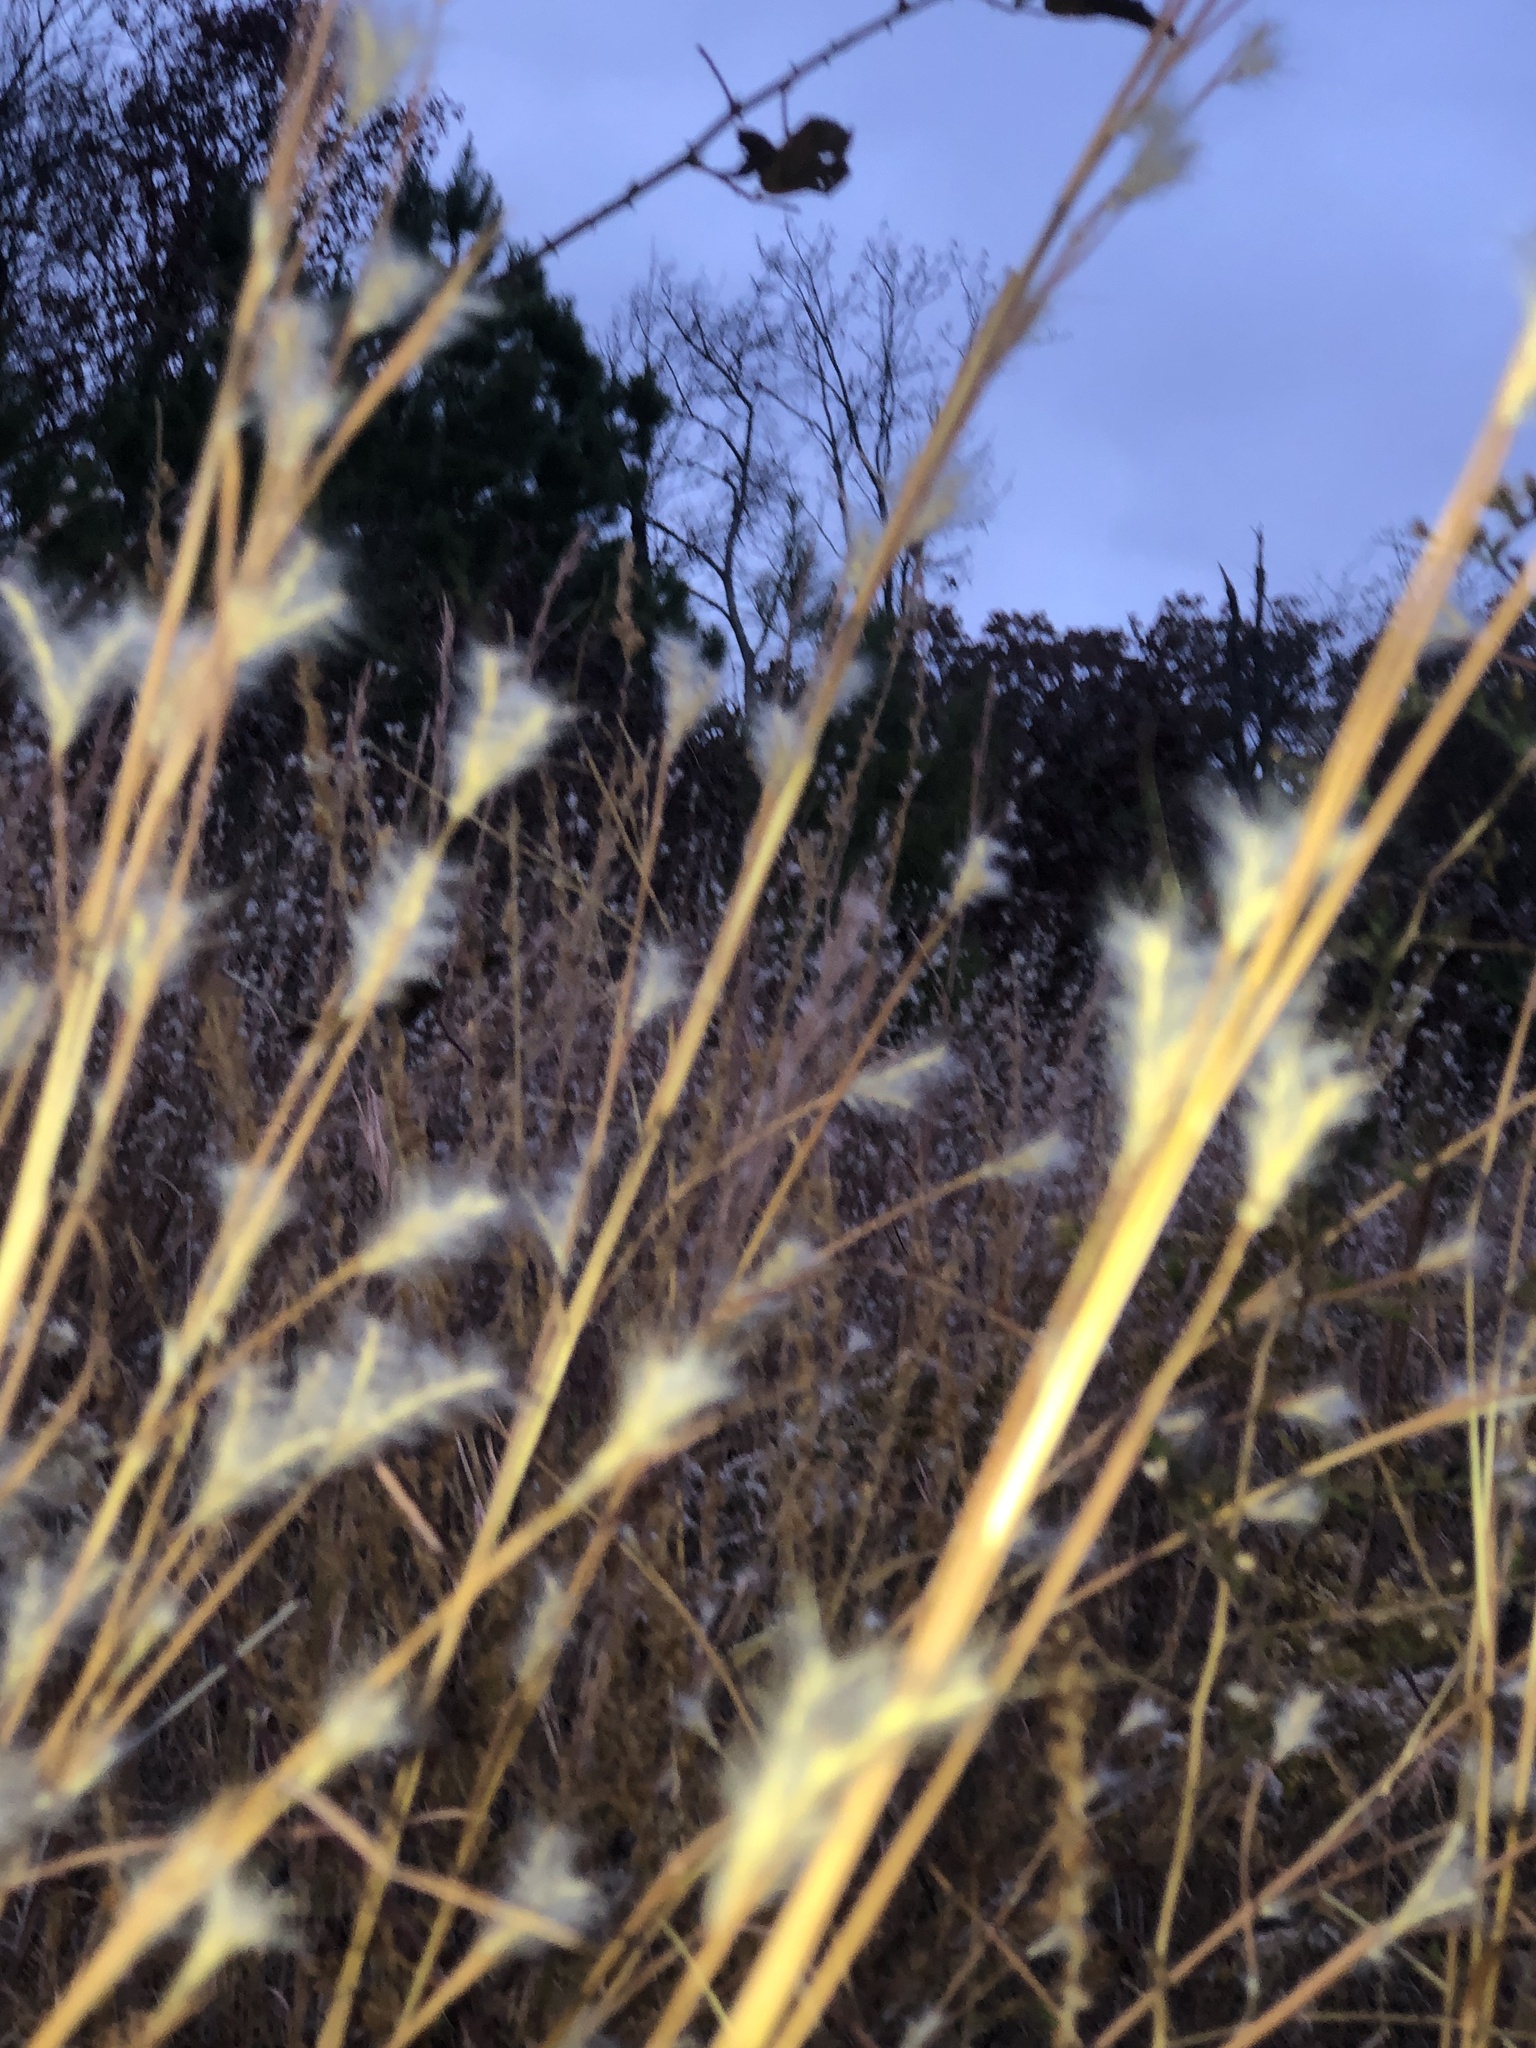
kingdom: Plantae
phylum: Tracheophyta
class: Liliopsida
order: Poales
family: Poaceae
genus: Andropogon
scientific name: Andropogon ternarius
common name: Split bluestem
